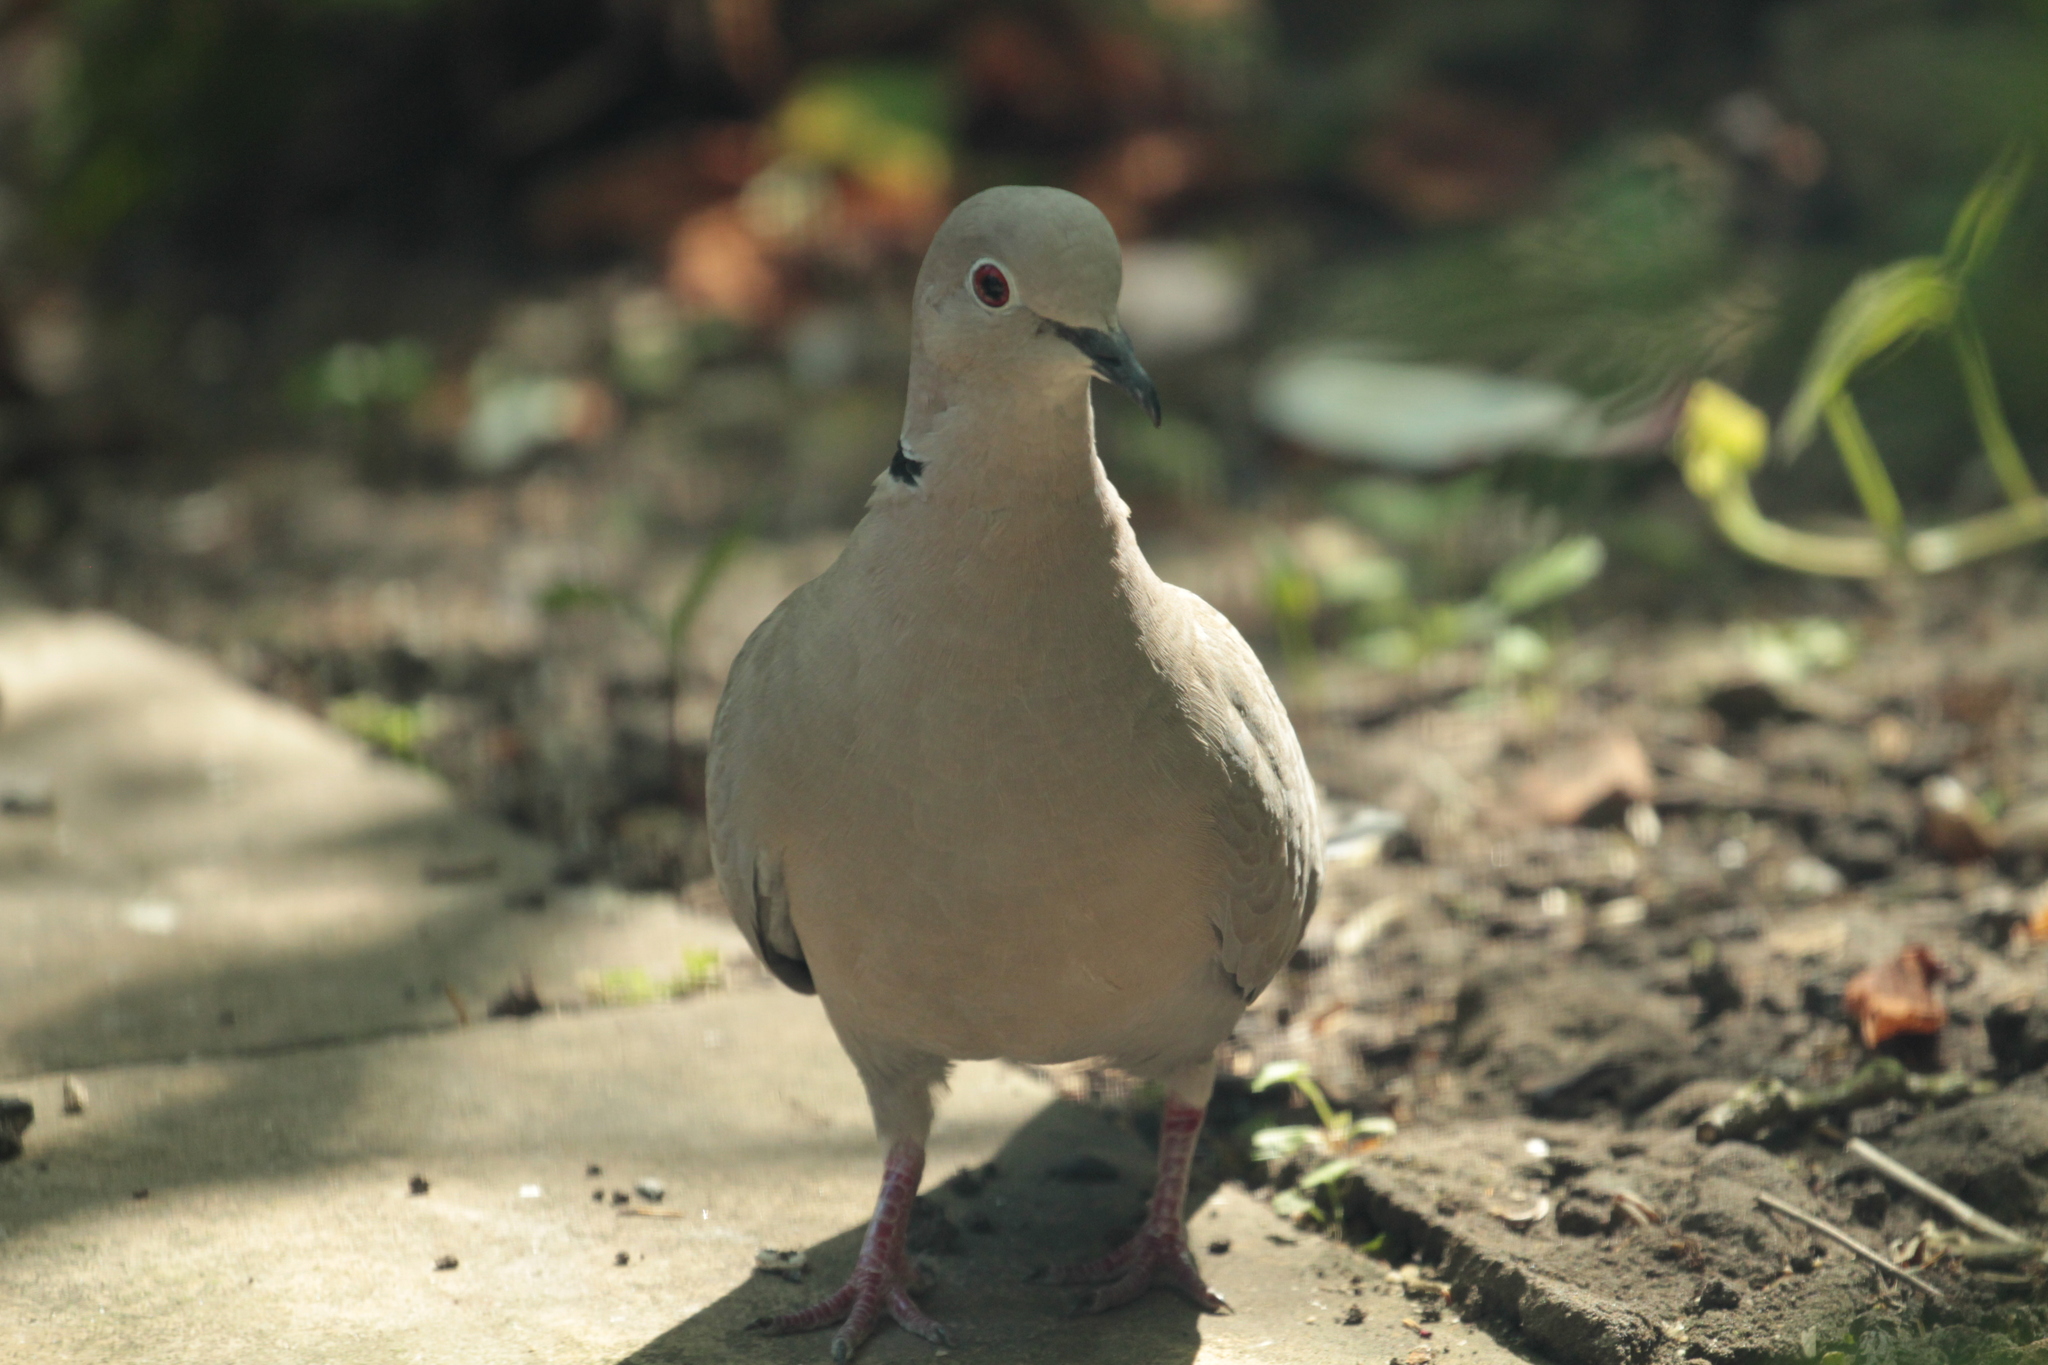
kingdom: Animalia
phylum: Chordata
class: Aves
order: Columbiformes
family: Columbidae
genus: Streptopelia
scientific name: Streptopelia decaocto
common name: Eurasian collared dove
